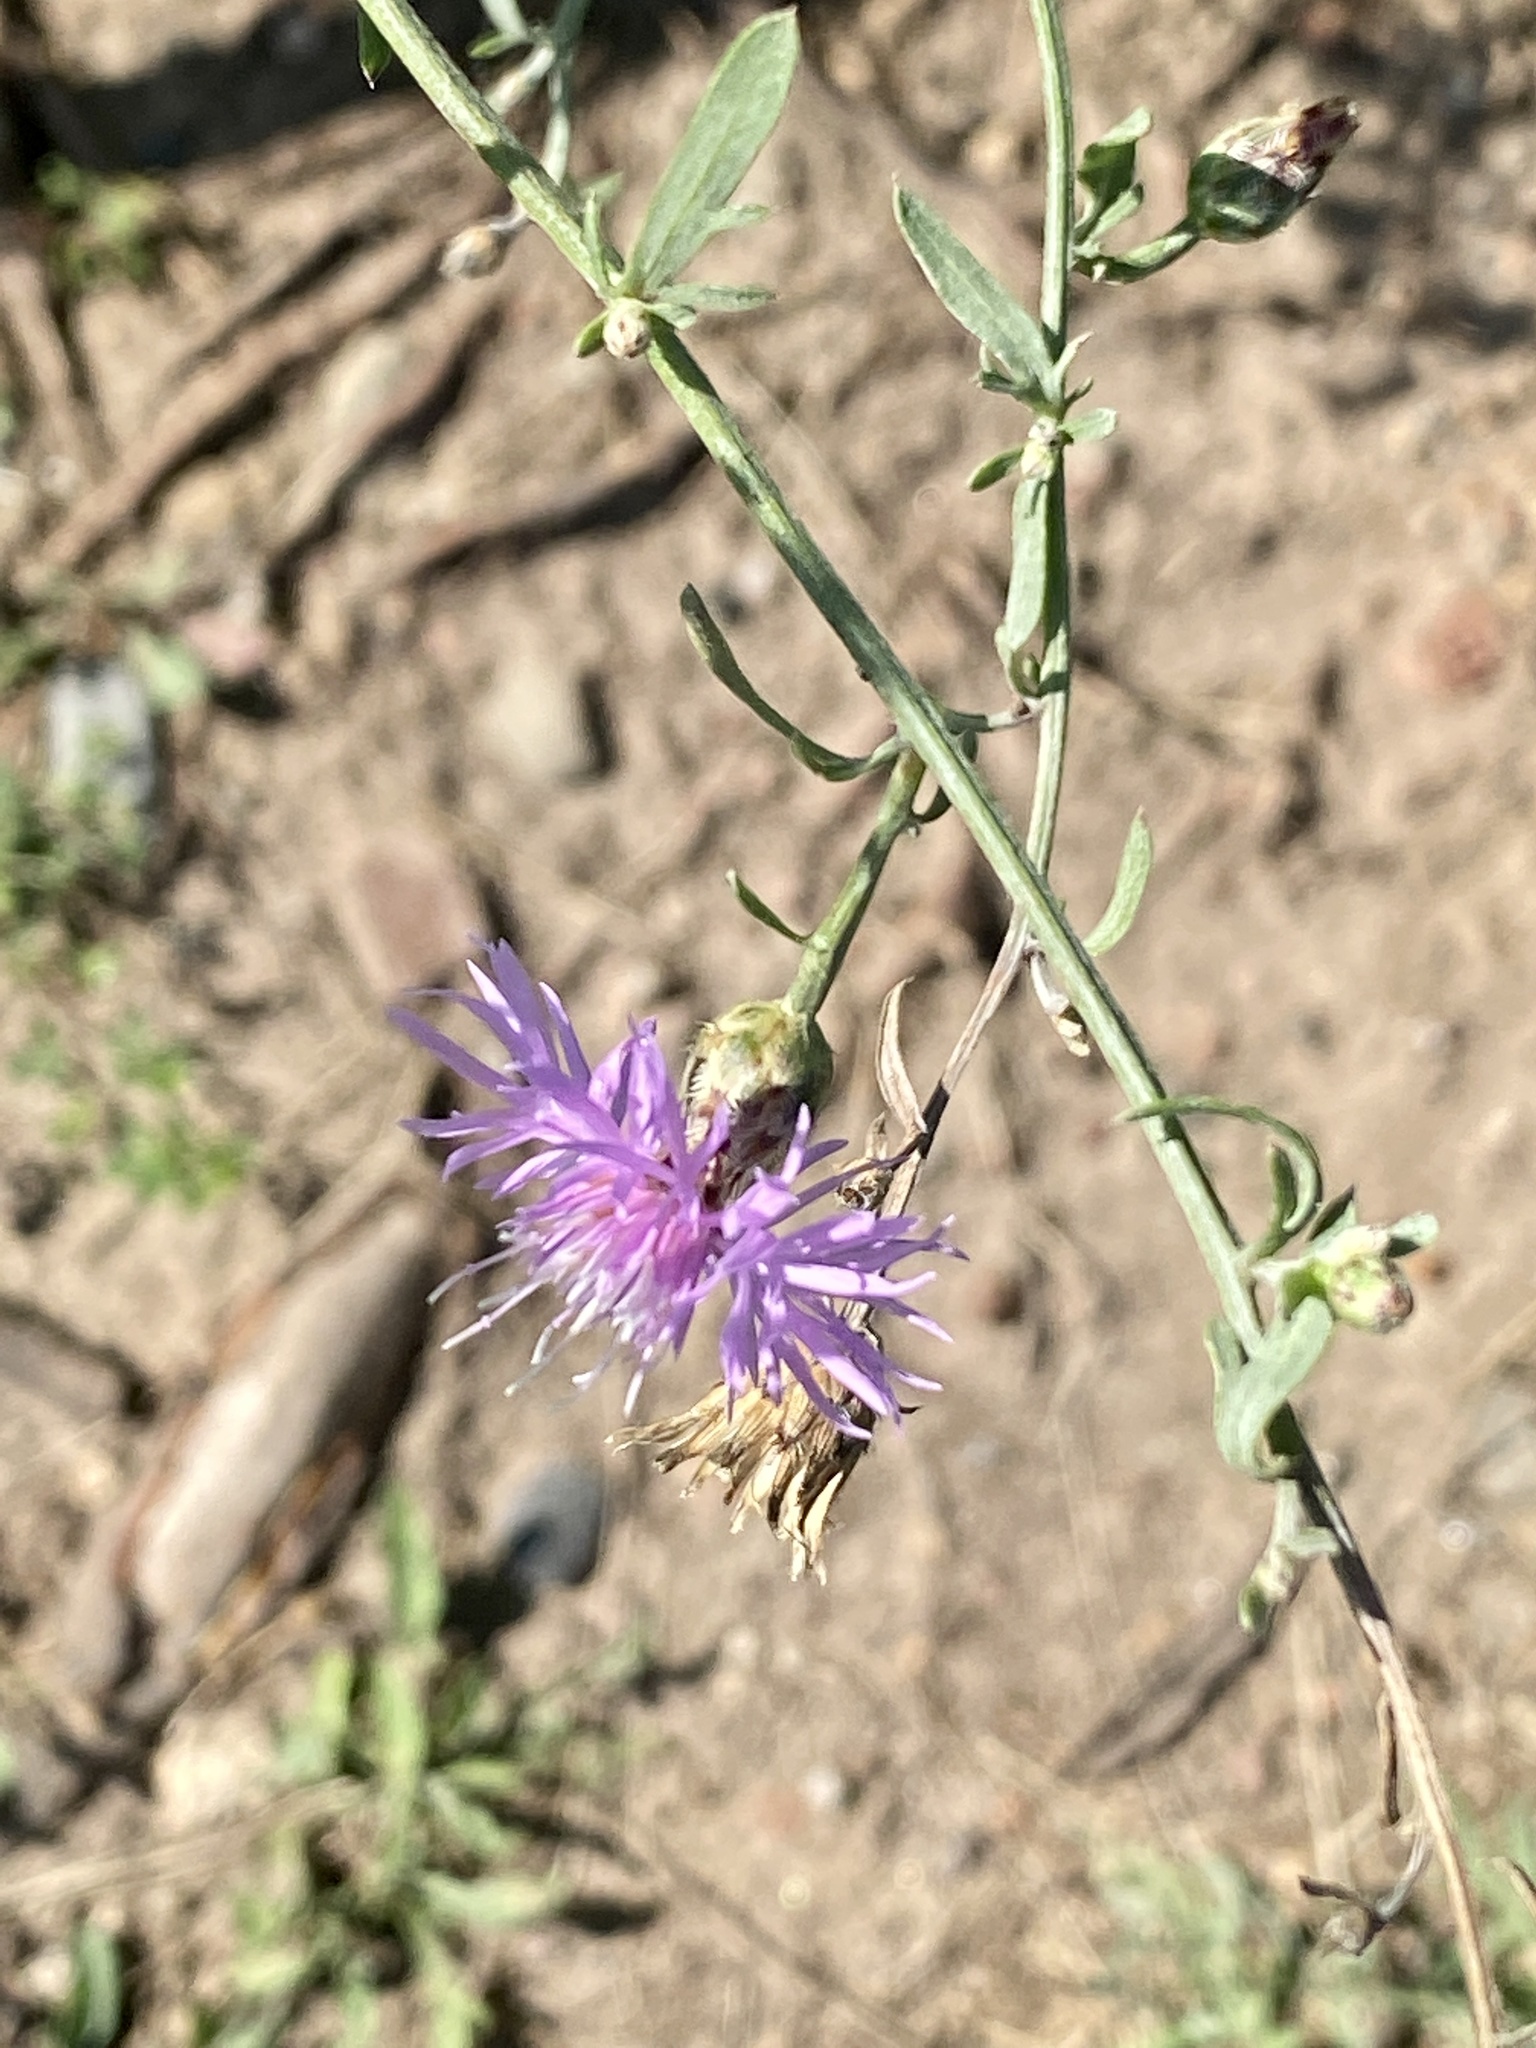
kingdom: Plantae
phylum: Tracheophyta
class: Magnoliopsida
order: Asterales
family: Asteraceae
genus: Centaurea
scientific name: Centaurea stoebe
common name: Spotted knapweed
